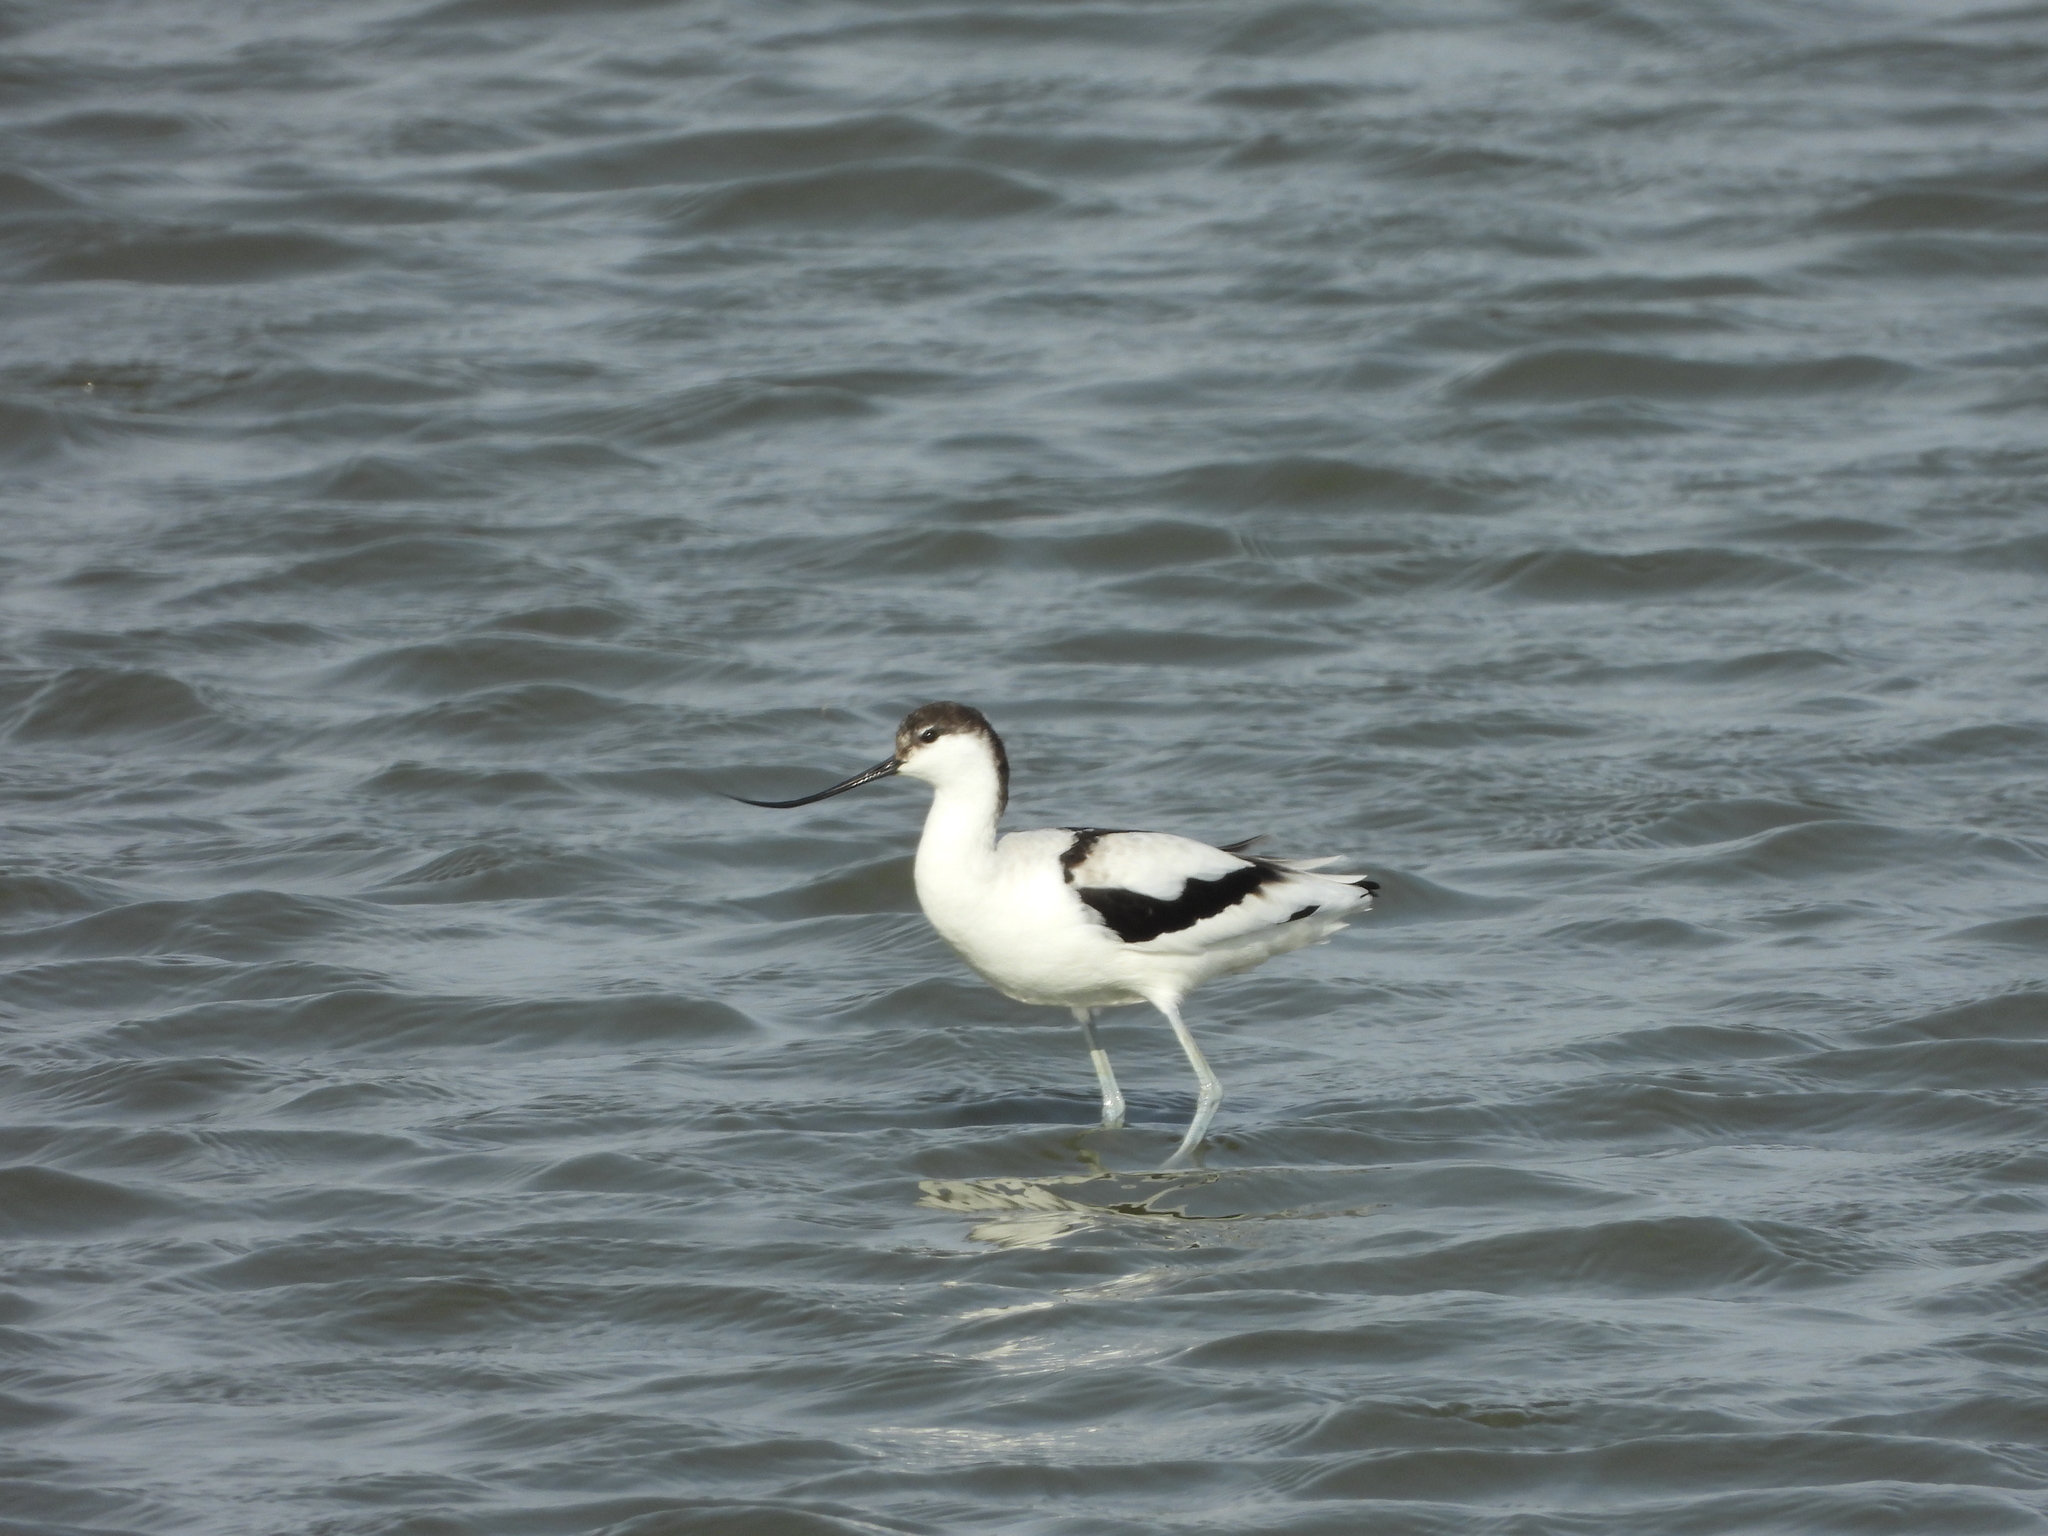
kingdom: Animalia
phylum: Chordata
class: Aves
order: Charadriiformes
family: Recurvirostridae
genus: Recurvirostra
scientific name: Recurvirostra avosetta
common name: Pied avocet
